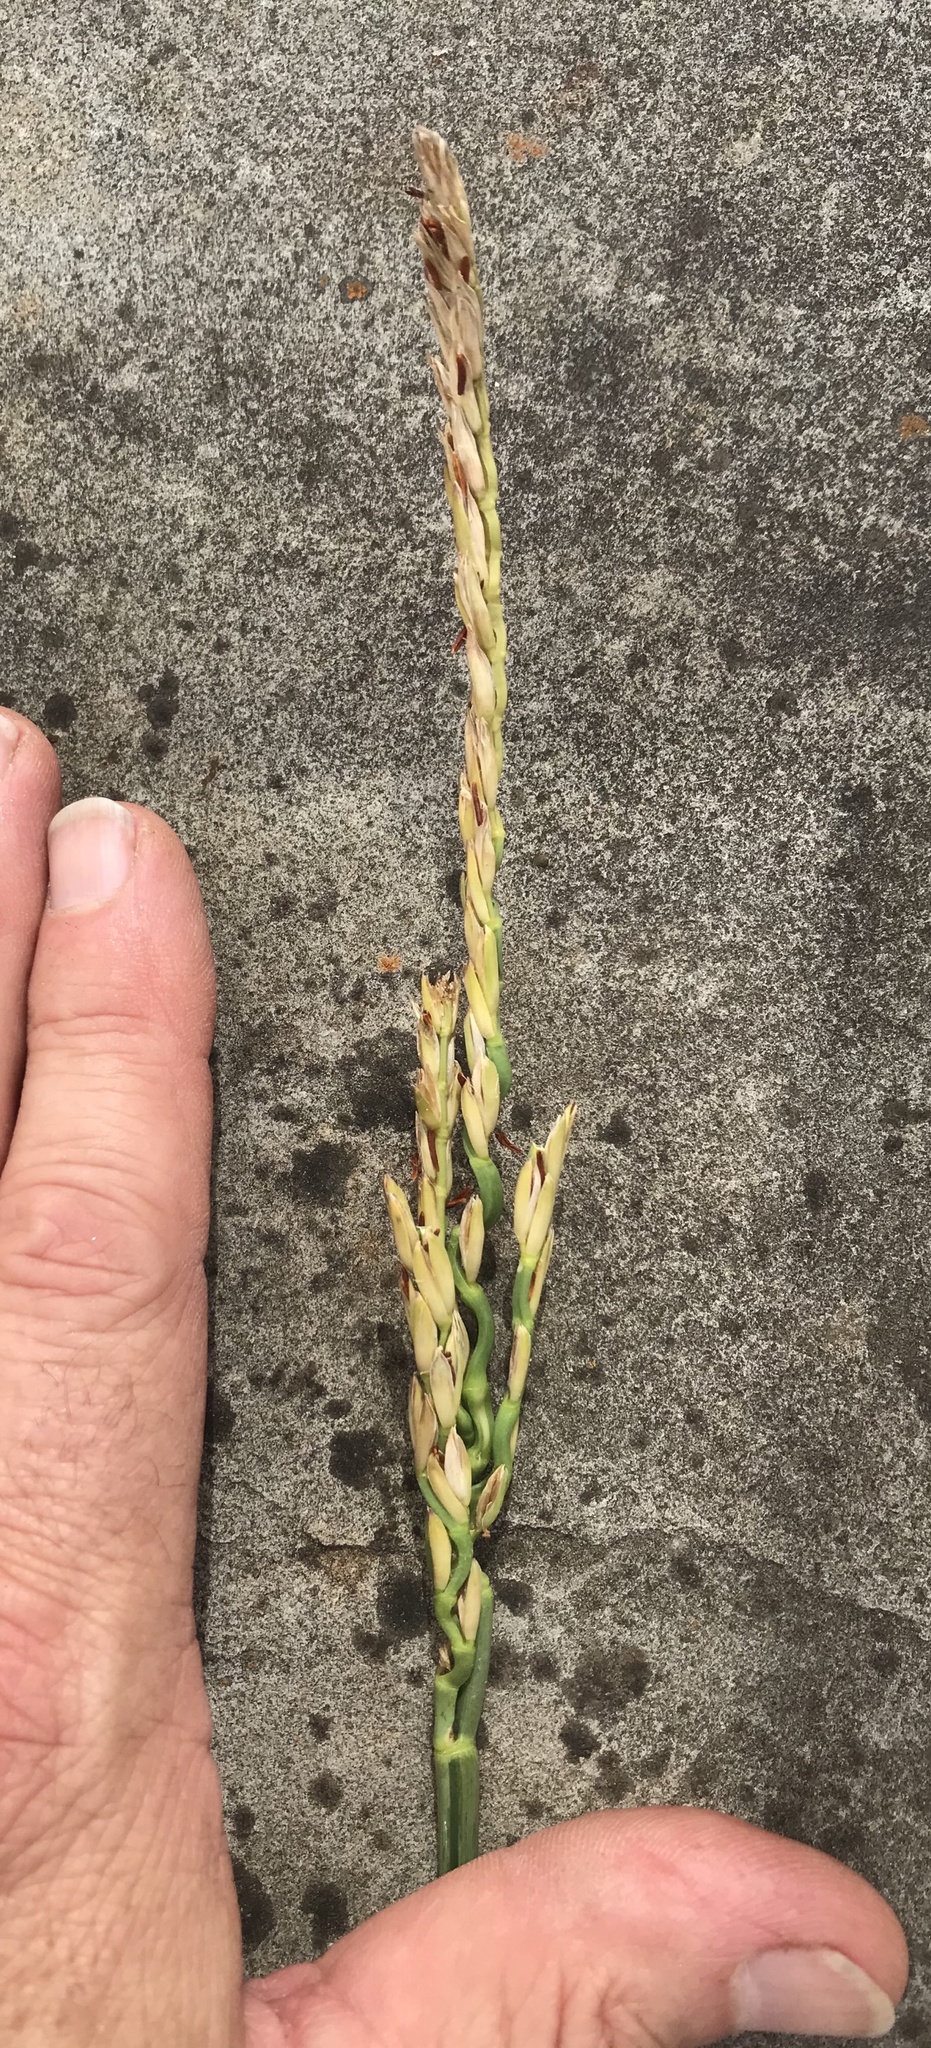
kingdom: Plantae
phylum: Tracheophyta
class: Liliopsida
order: Poales
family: Poaceae
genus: Tripsacum
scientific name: Tripsacum dactyloides
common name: Buffalo-grass
